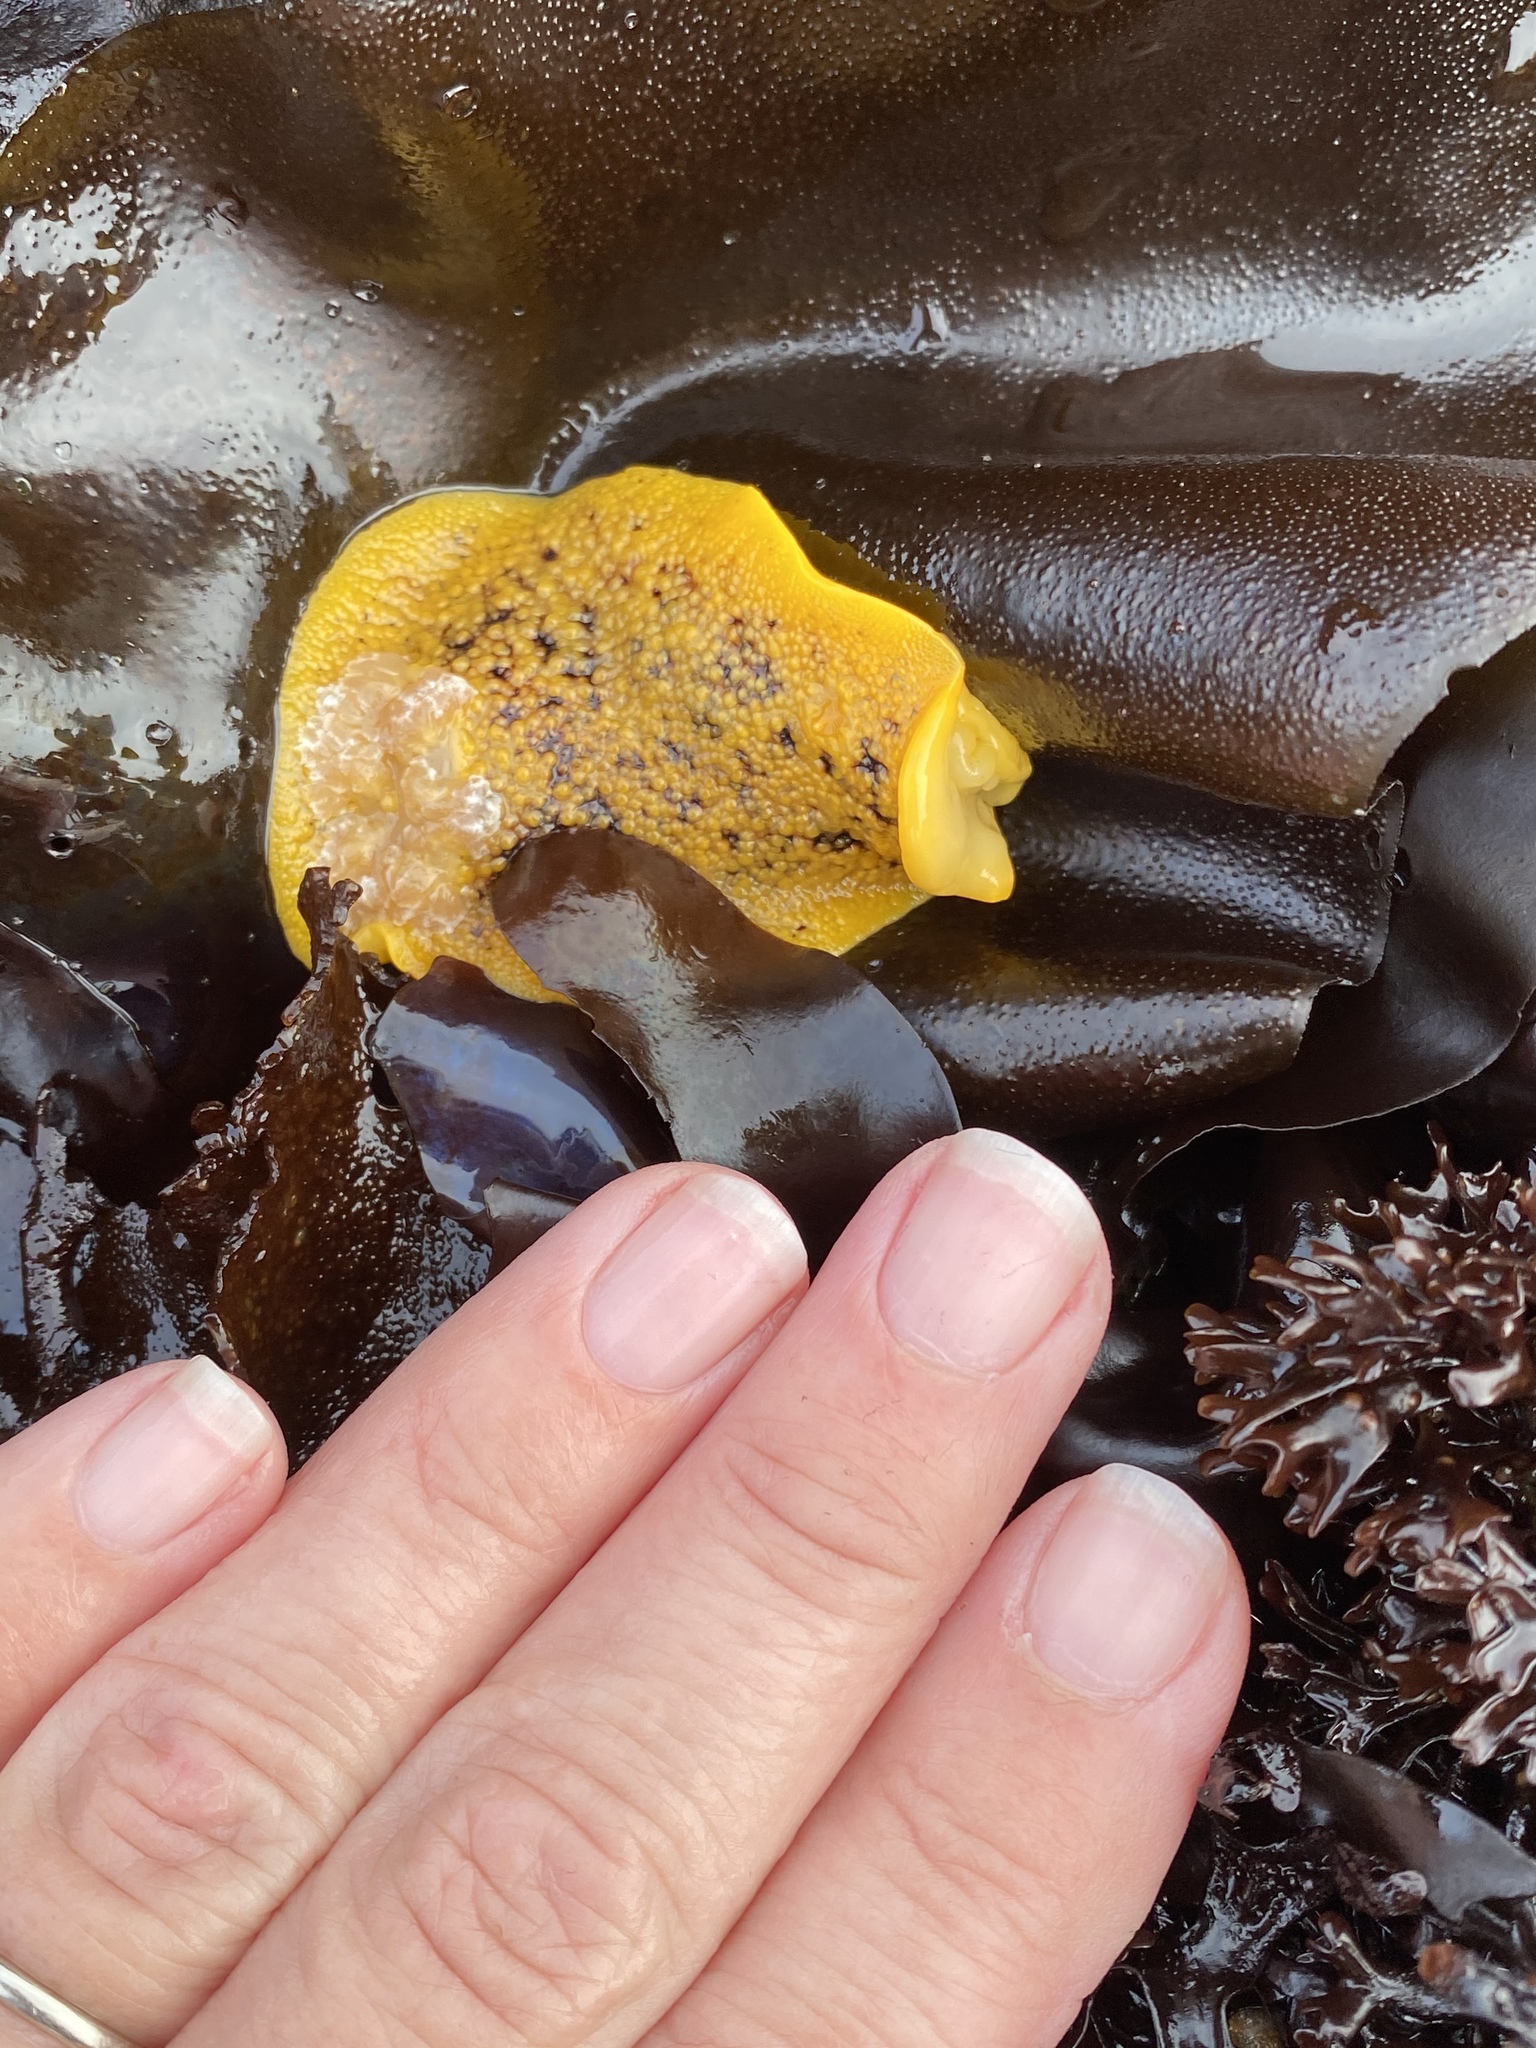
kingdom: Animalia
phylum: Mollusca
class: Gastropoda
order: Nudibranchia
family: Discodorididae
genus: Peltodoris
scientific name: Peltodoris nobilis
